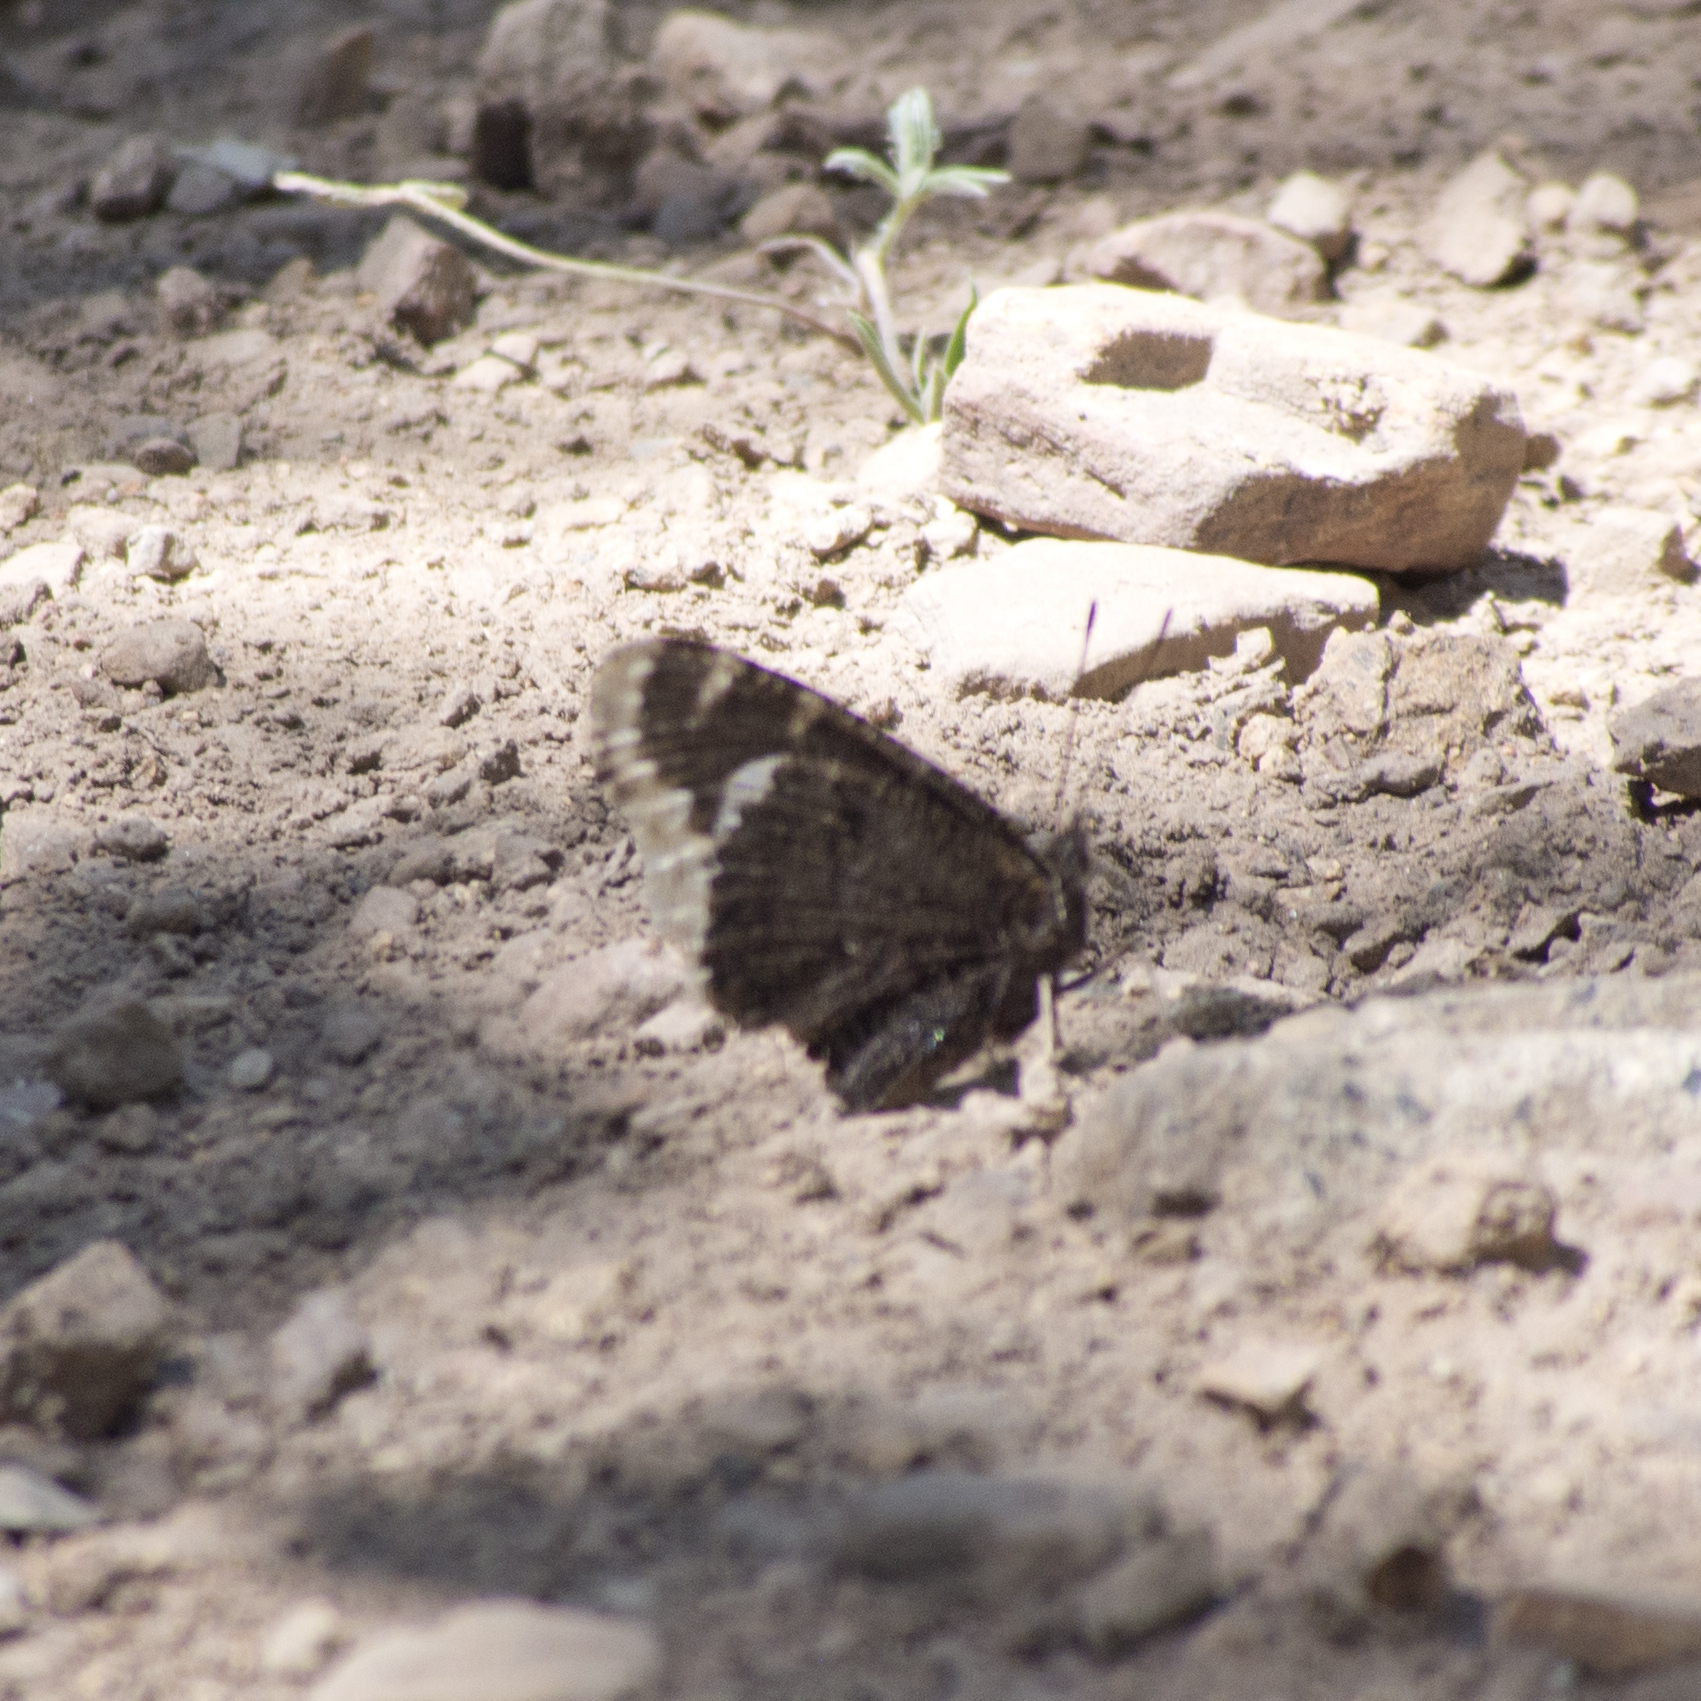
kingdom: Animalia
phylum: Arthropoda
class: Insecta
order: Lepidoptera
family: Nymphalidae
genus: Nymphalis
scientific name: Nymphalis antiopa
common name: Camberwell beauty
